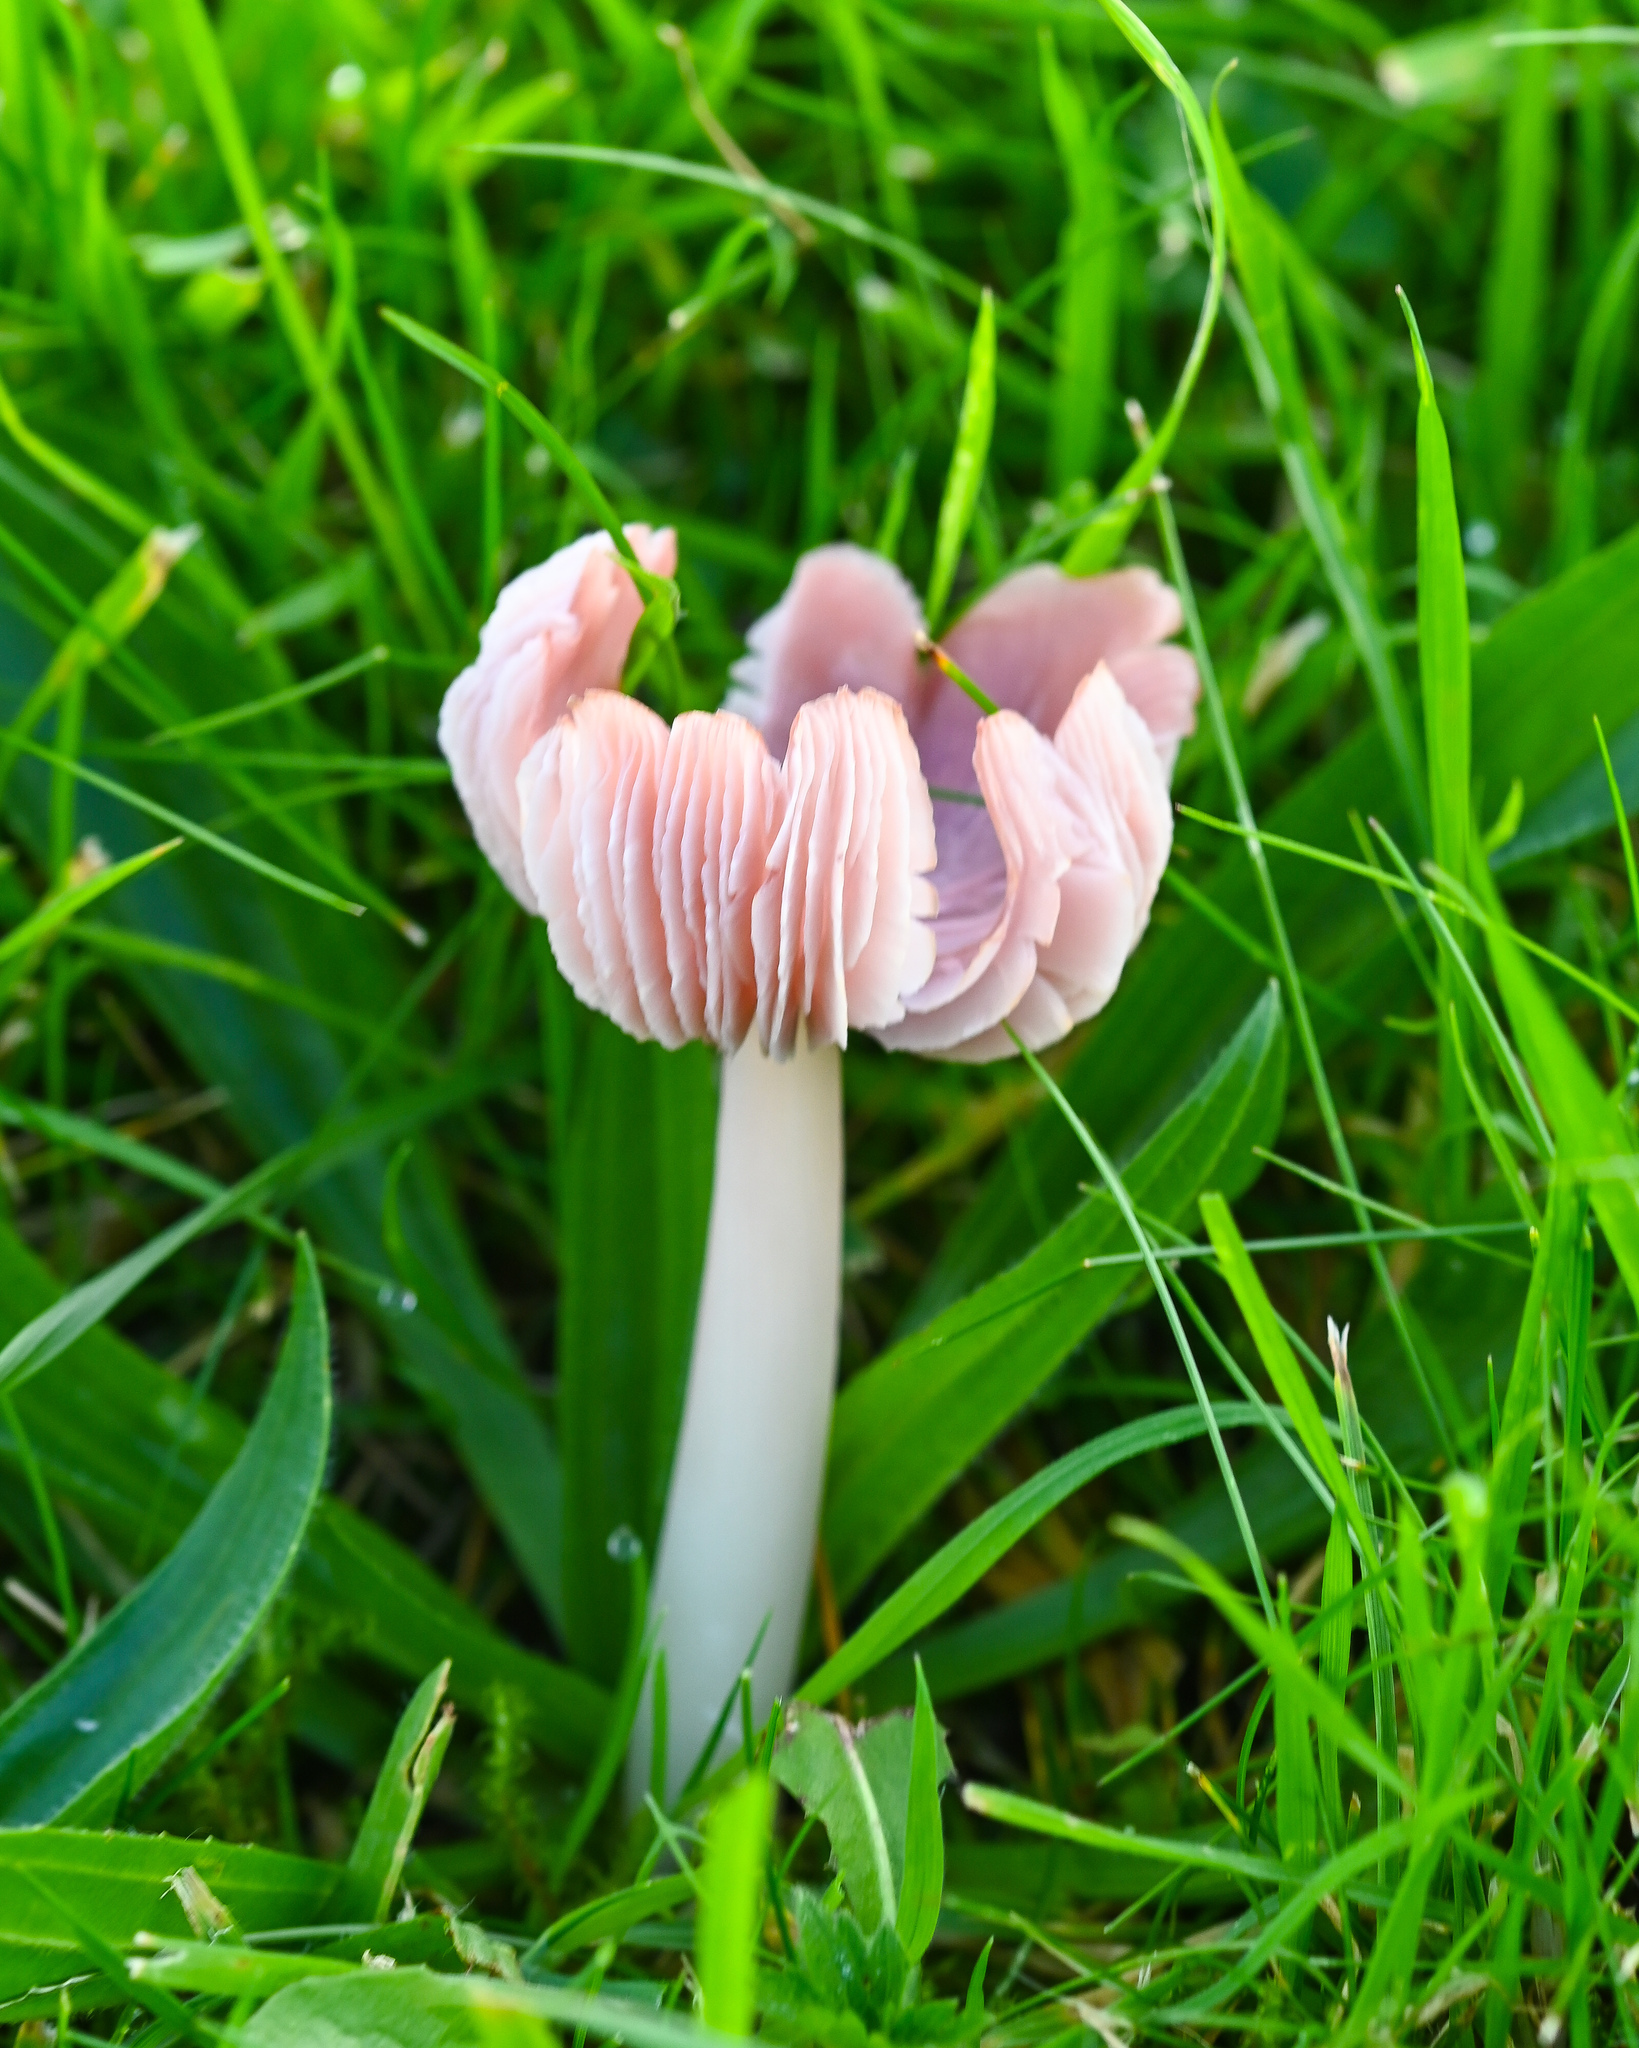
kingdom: Fungi
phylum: Basidiomycota
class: Agaricomycetes
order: Agaricales
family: Hygrophoraceae
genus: Porpolomopsis
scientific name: Porpolomopsis calyptriformis
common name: Pink waxcap
